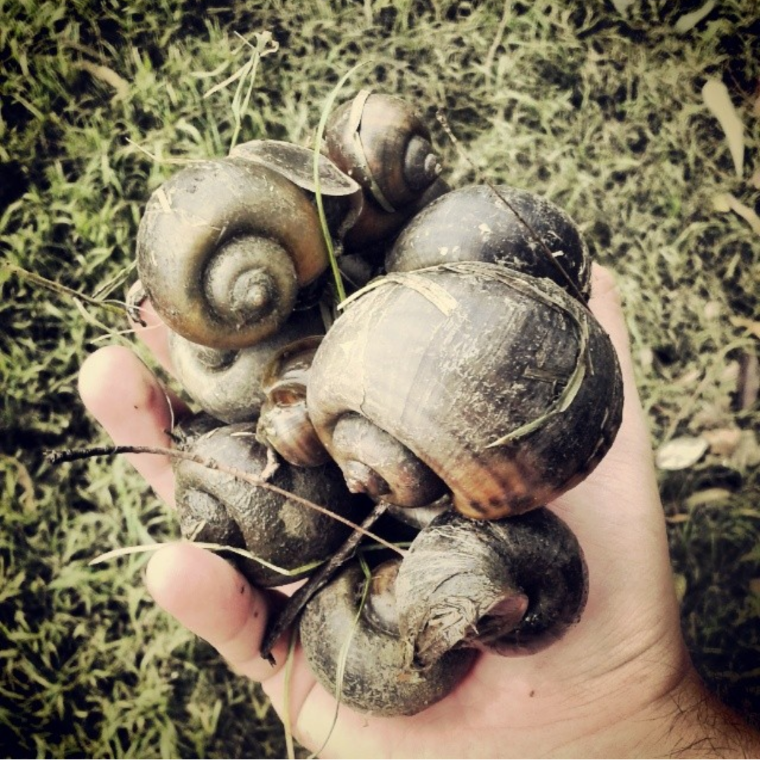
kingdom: Animalia
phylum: Mollusca
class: Gastropoda
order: Architaenioglossa
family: Ampullariidae
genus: Pomacea
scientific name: Pomacea canaliculata
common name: Channeled applesnail
